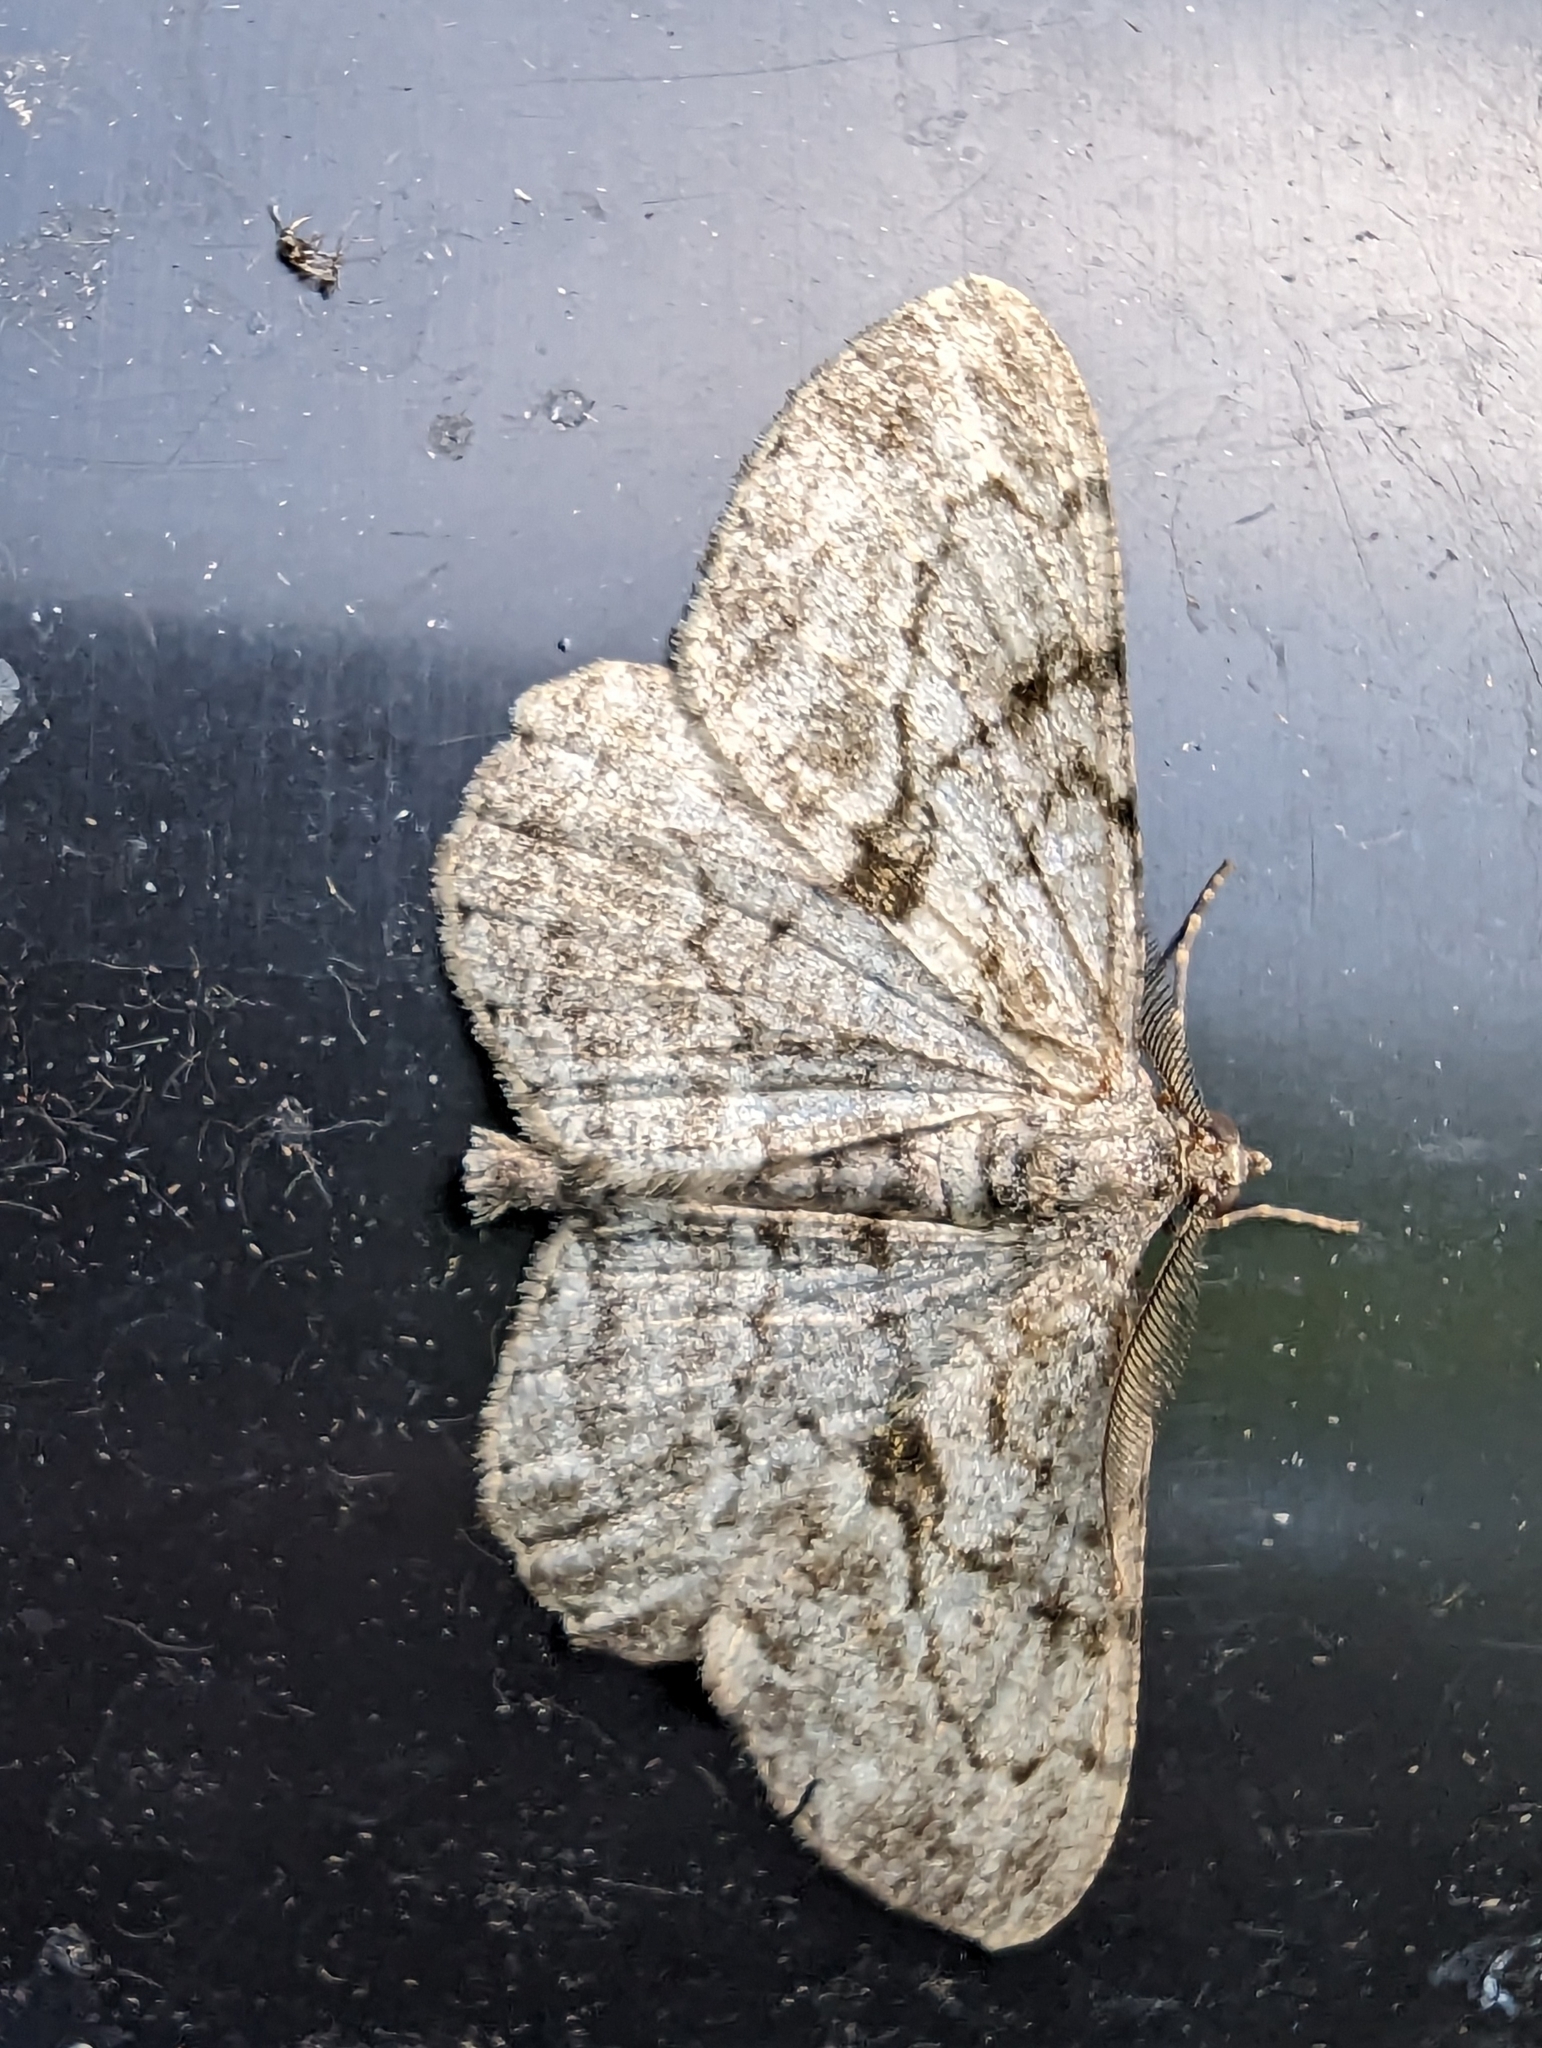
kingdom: Animalia
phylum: Arthropoda
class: Insecta
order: Lepidoptera
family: Geometridae
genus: Peribatodes
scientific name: Peribatodes rhomboidaria
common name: Willow beauty
